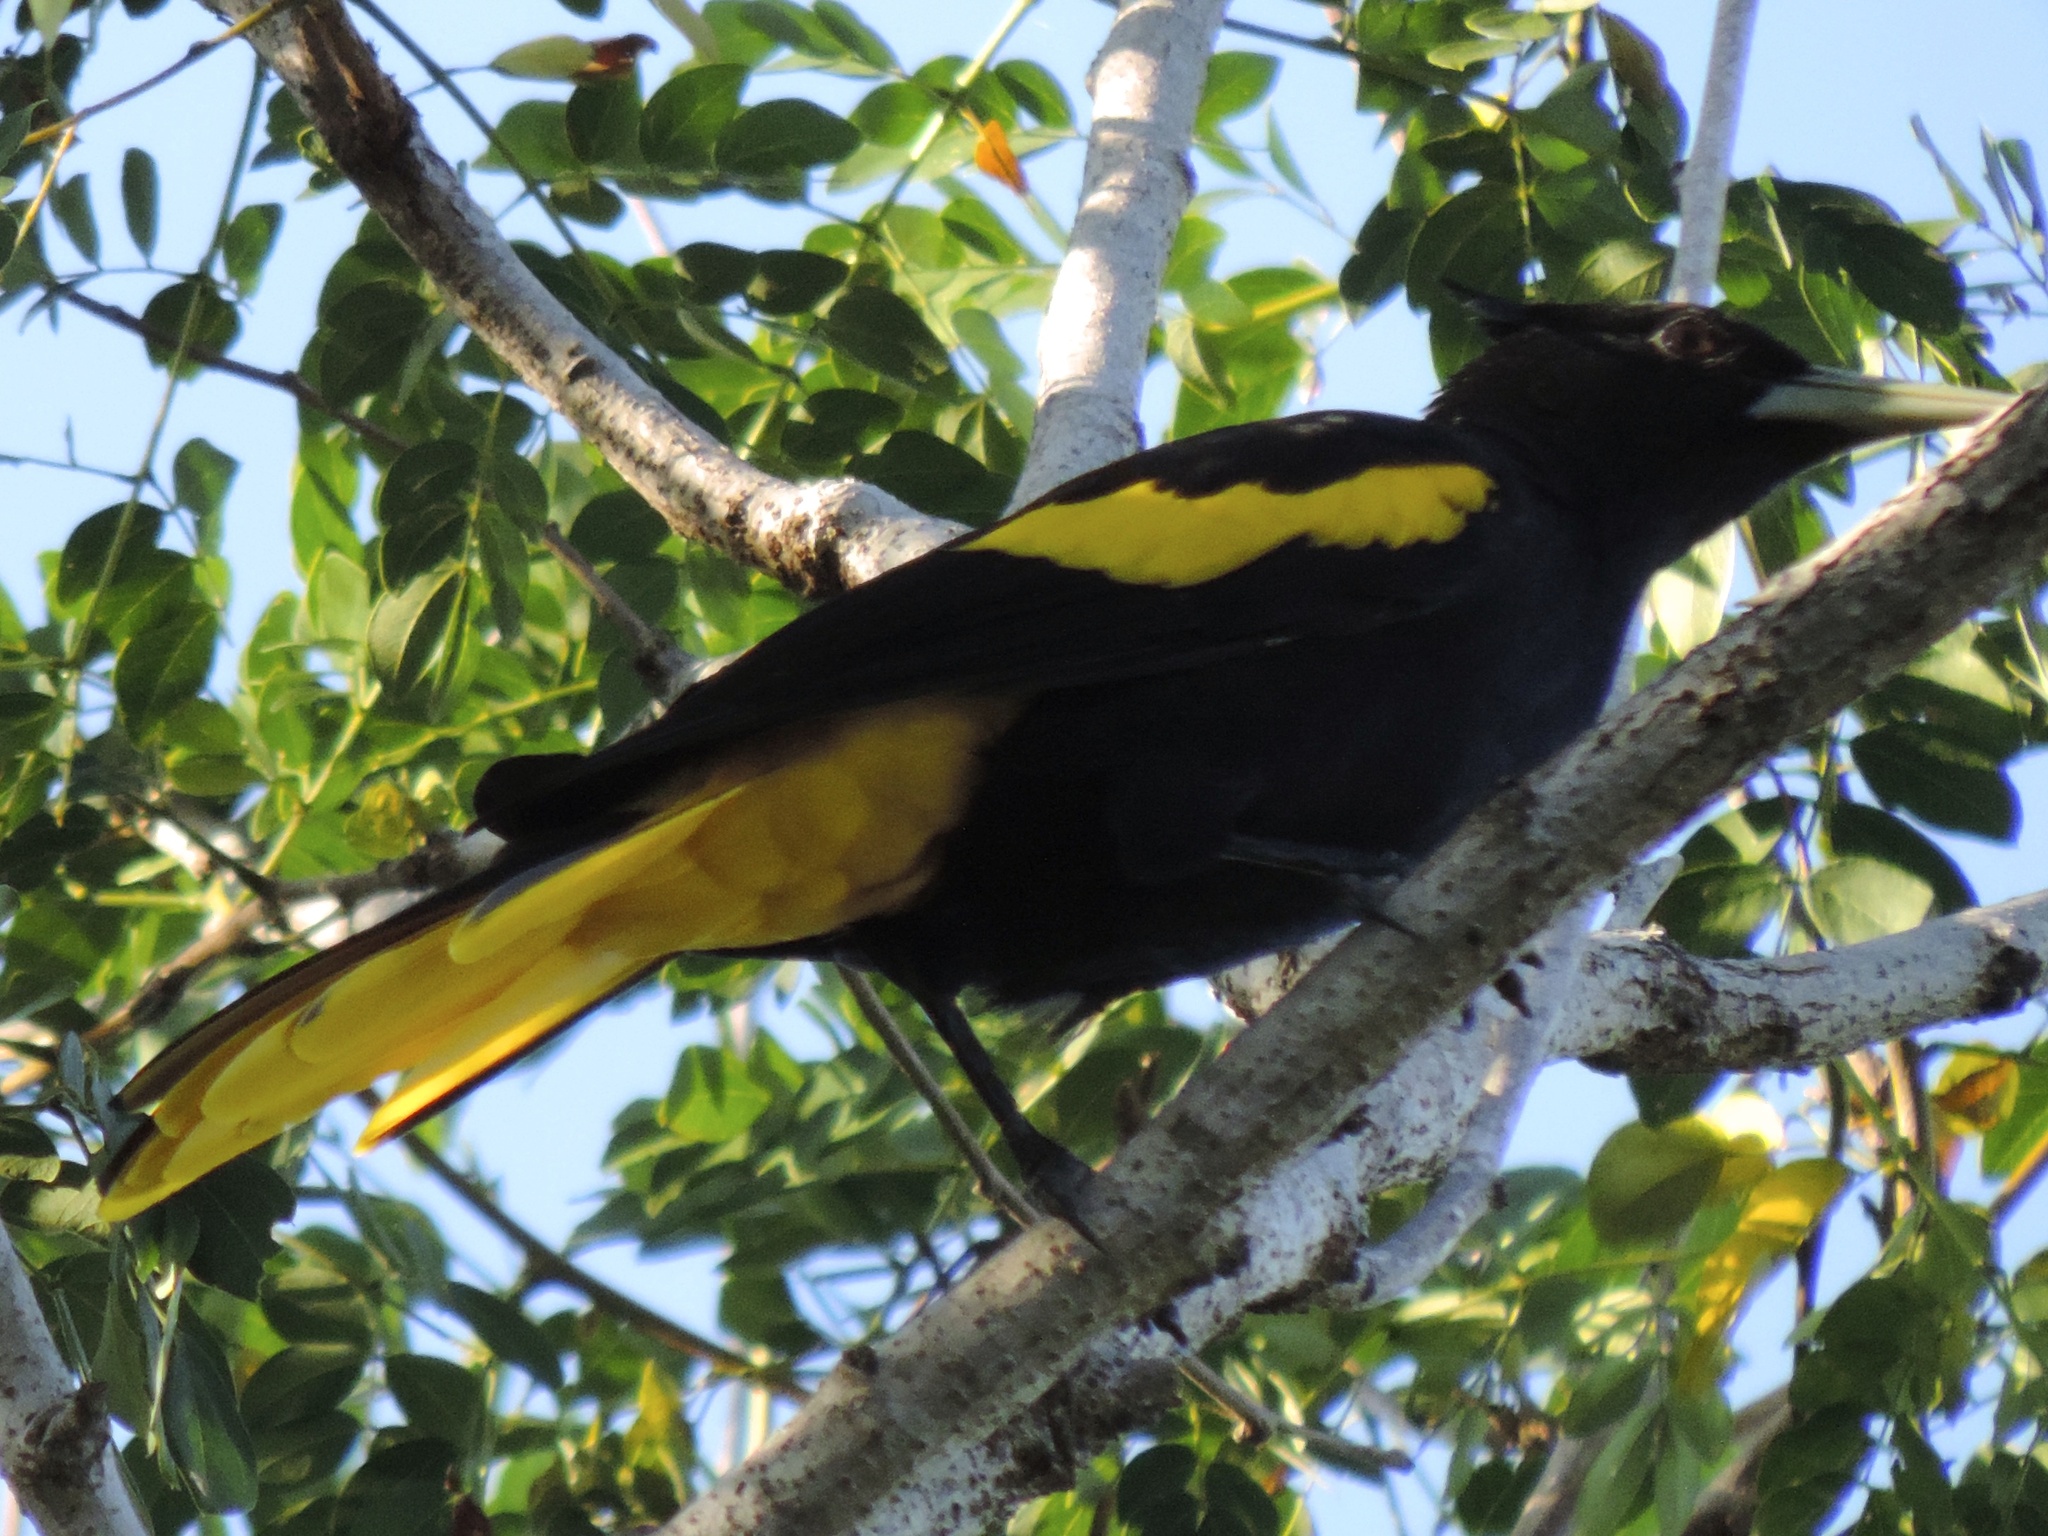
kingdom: Animalia
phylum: Chordata
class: Aves
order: Passeriformes
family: Icteridae
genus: Cacicus
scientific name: Cacicus melanicterus
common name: Yellow-winged cacique
